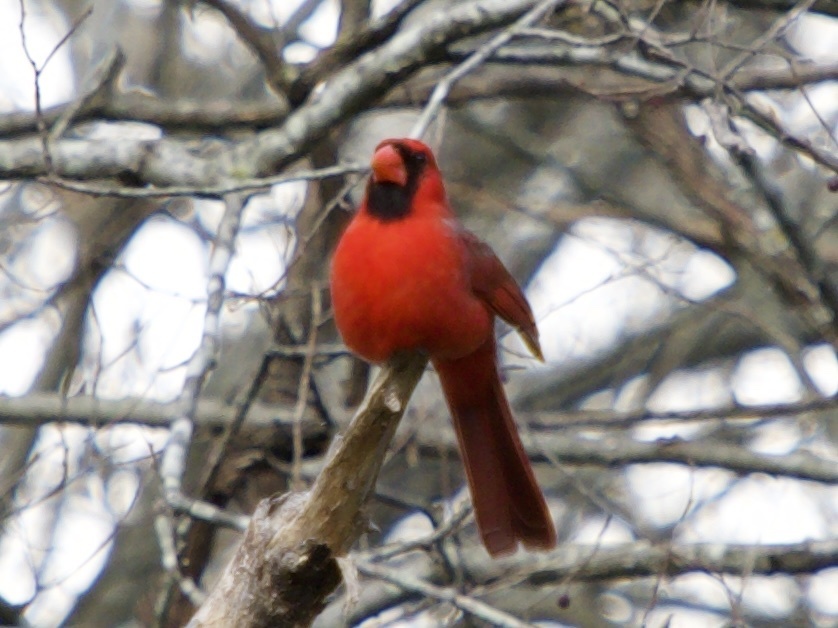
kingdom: Animalia
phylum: Chordata
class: Aves
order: Passeriformes
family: Cardinalidae
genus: Cardinalis
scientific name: Cardinalis cardinalis
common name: Northern cardinal
